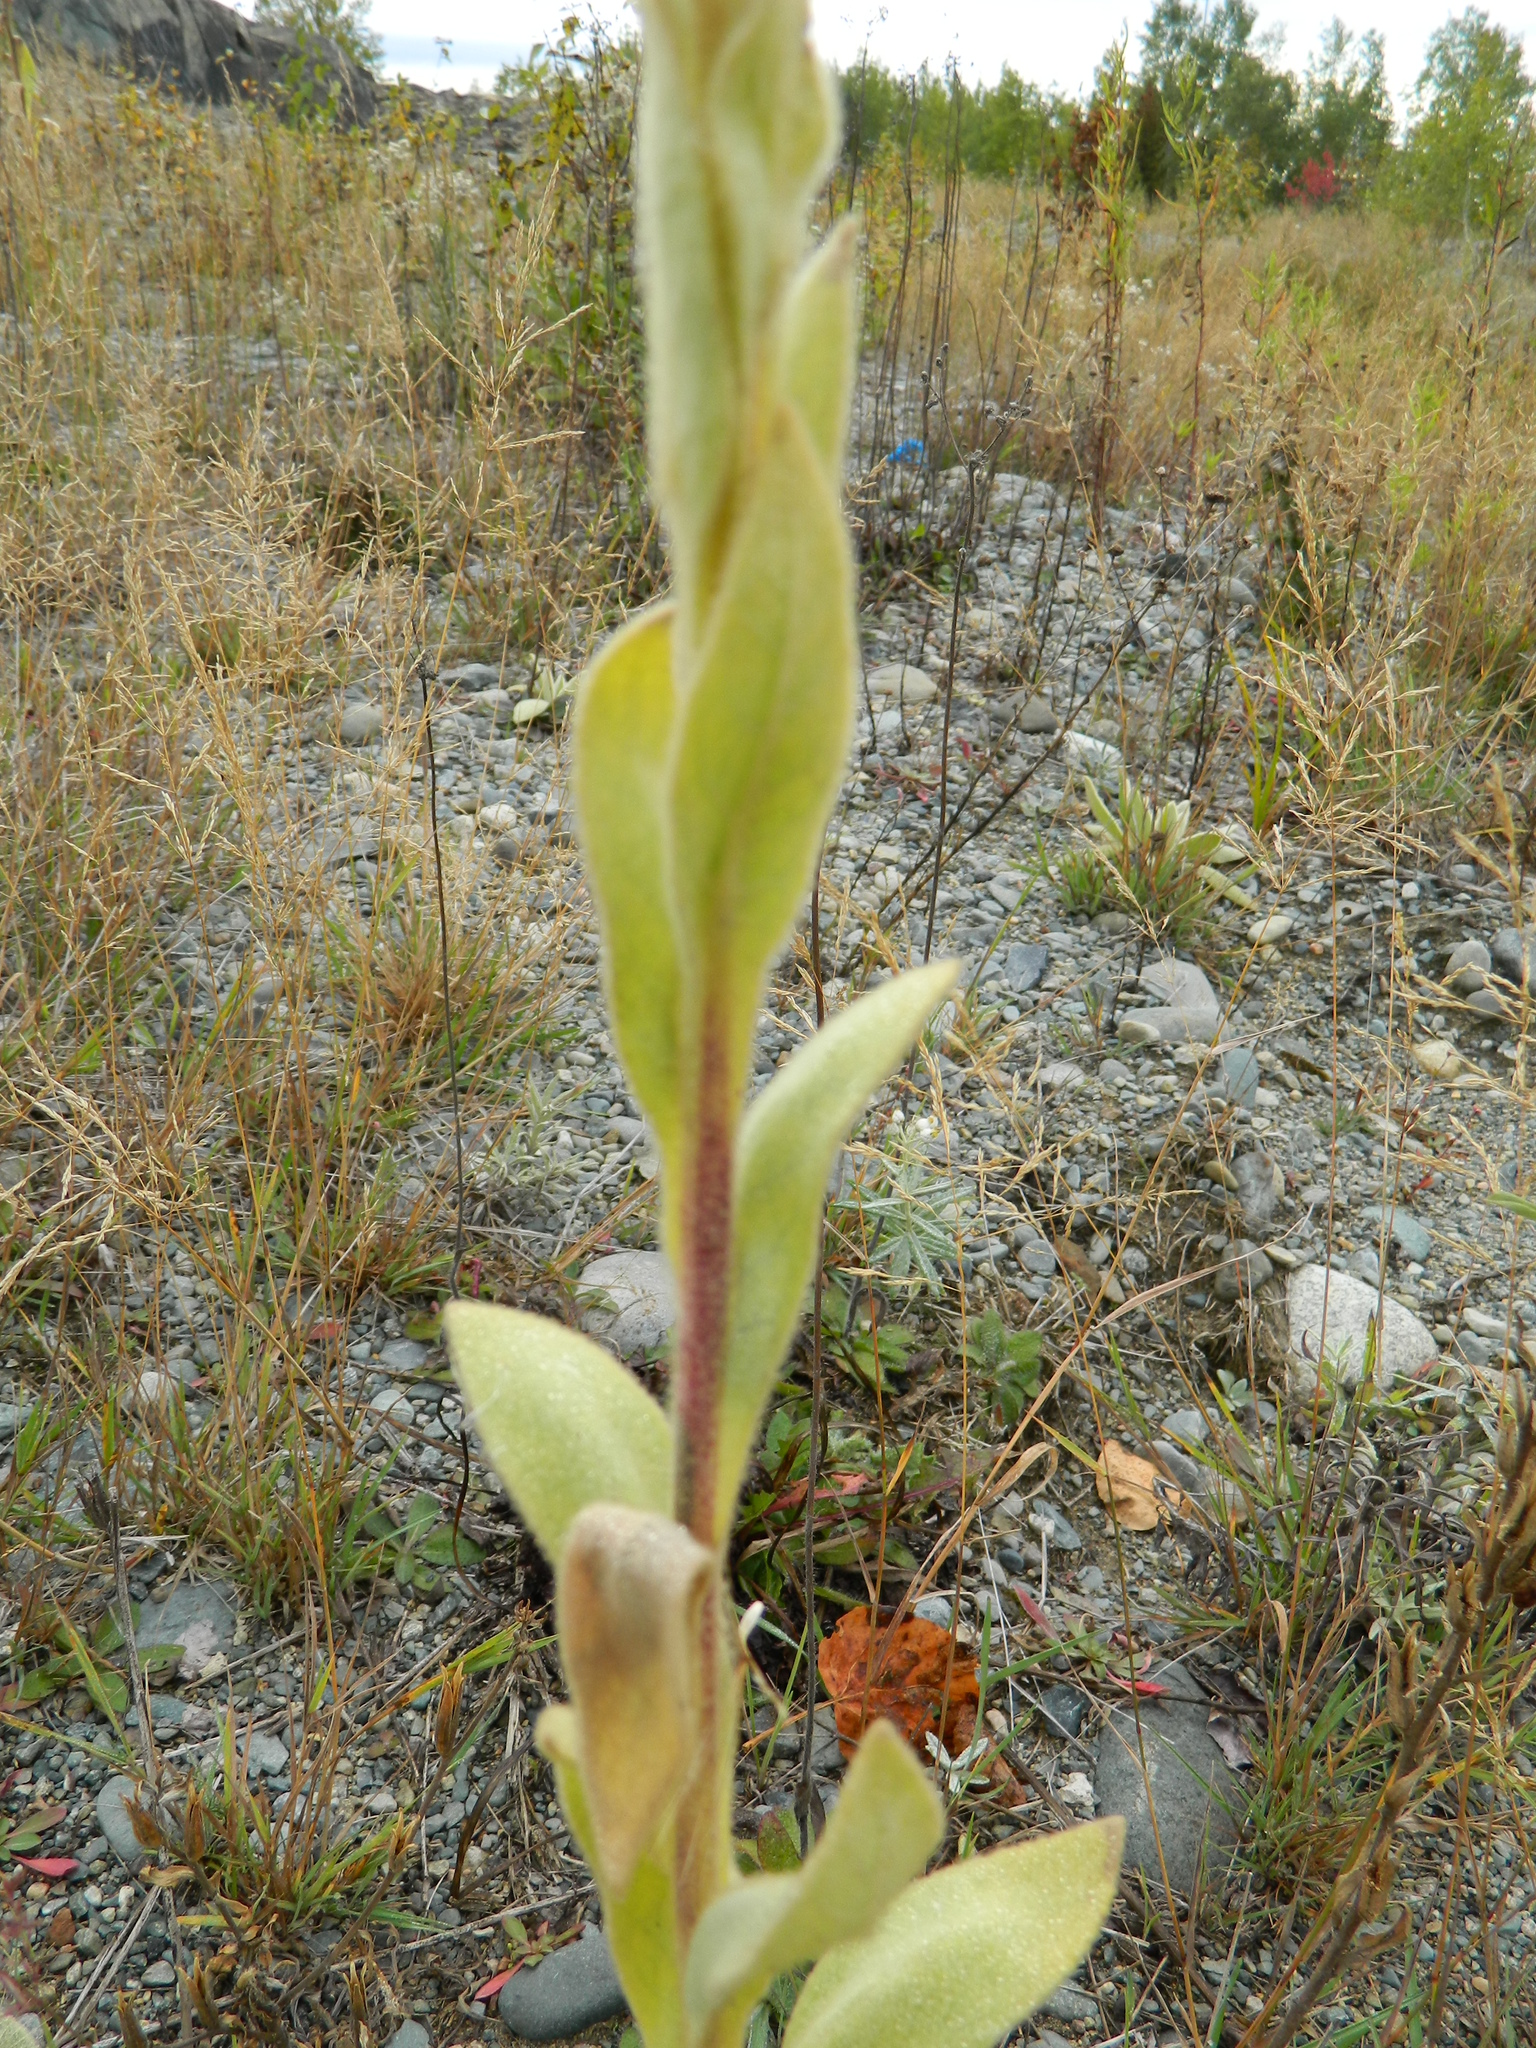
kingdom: Plantae
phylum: Tracheophyta
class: Magnoliopsida
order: Lamiales
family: Scrophulariaceae
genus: Verbascum
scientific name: Verbascum thapsus
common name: Common mullein
